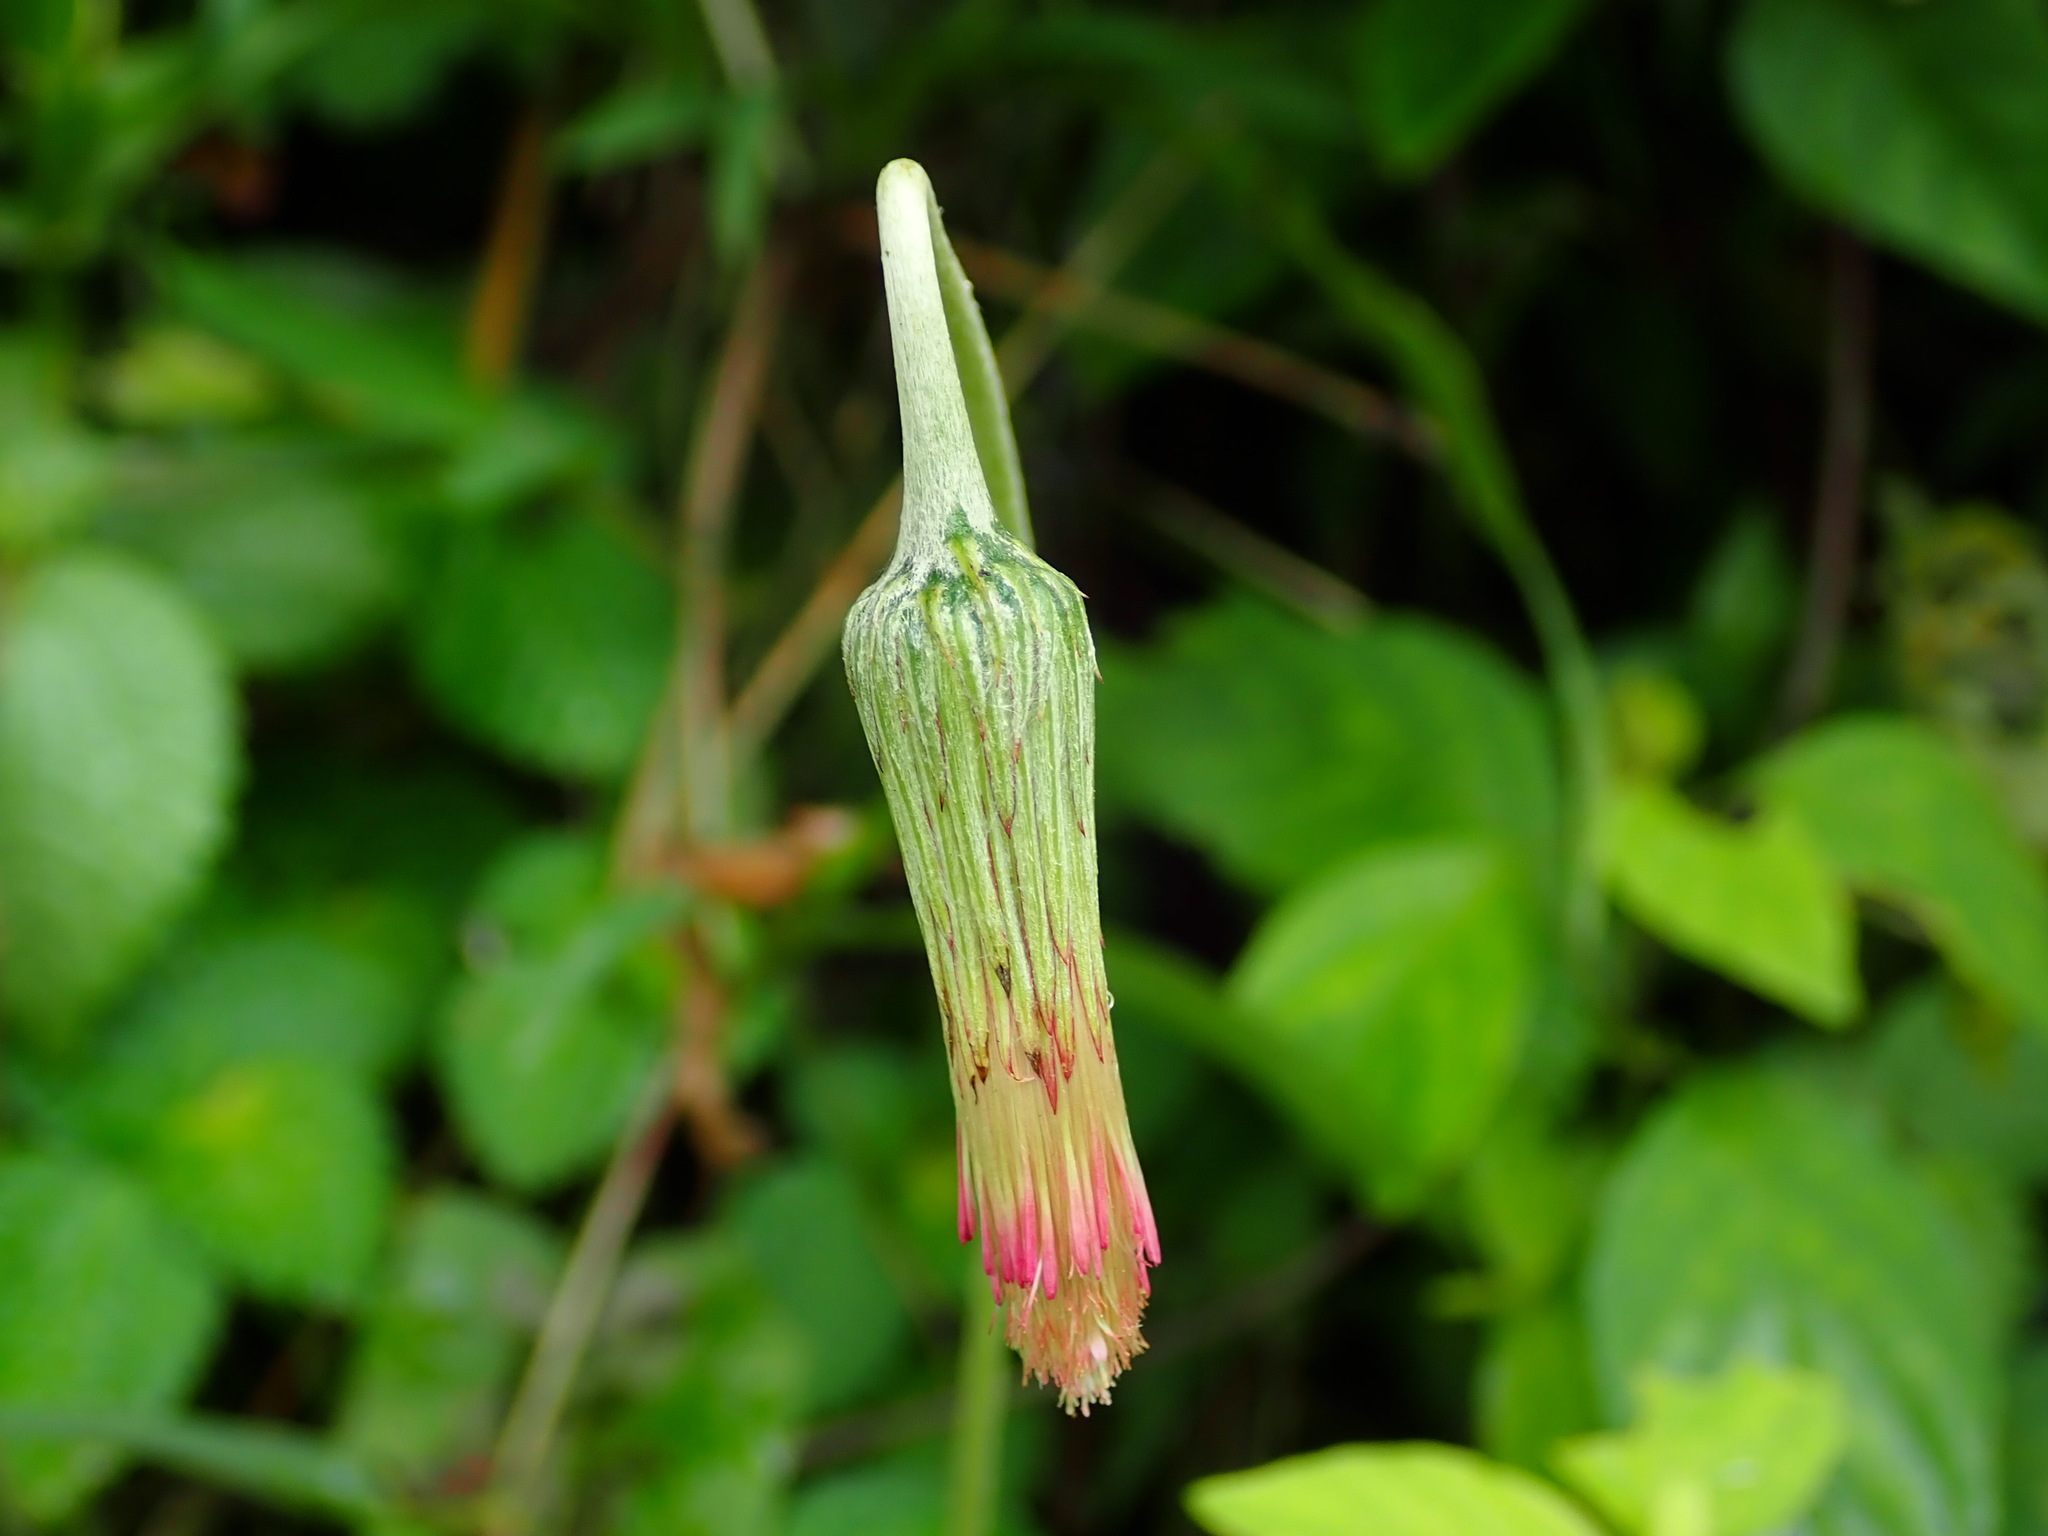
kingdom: Plantae
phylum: Tracheophyta
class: Magnoliopsida
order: Asterales
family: Asteraceae
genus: Chaptalia
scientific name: Chaptalia nutans
